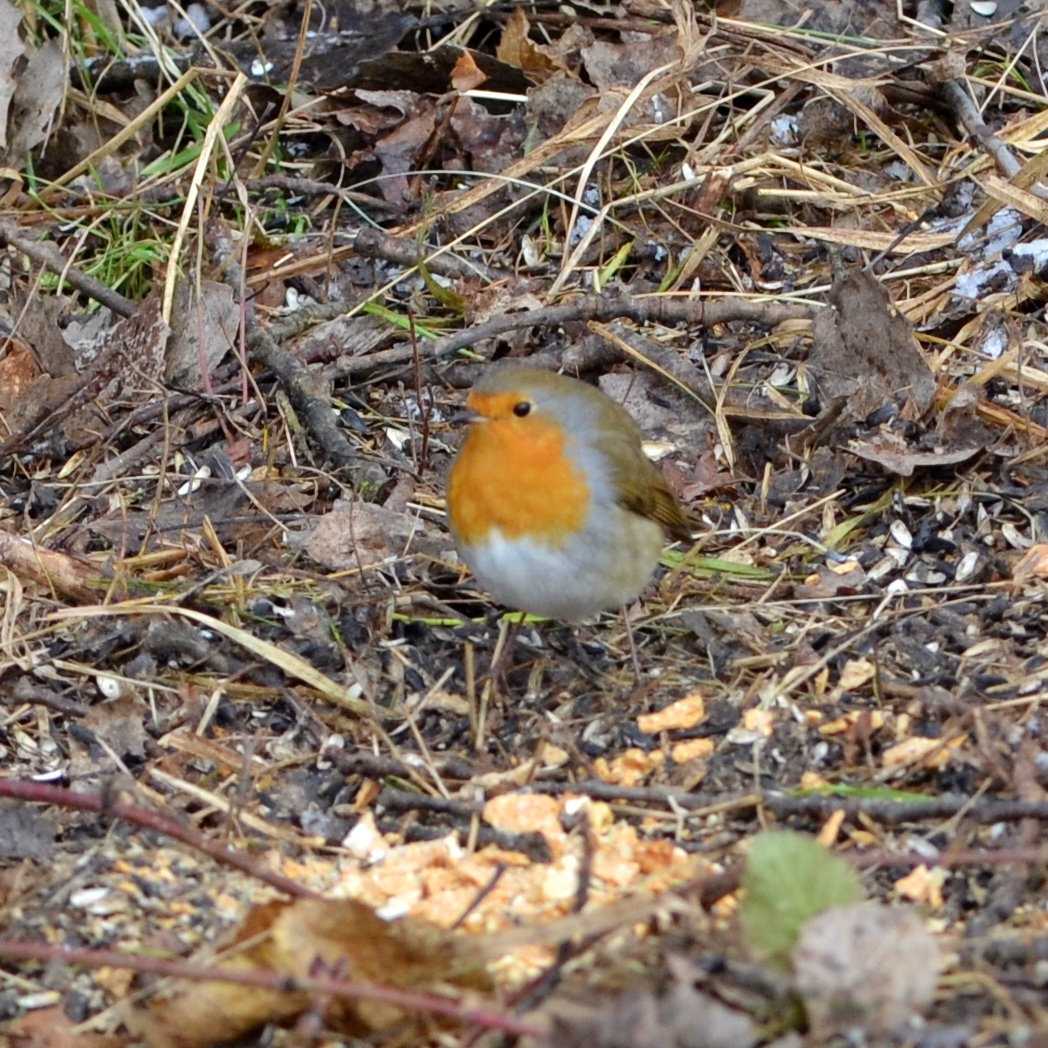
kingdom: Animalia
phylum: Chordata
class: Aves
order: Passeriformes
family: Muscicapidae
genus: Erithacus
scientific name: Erithacus rubecula
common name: European robin
